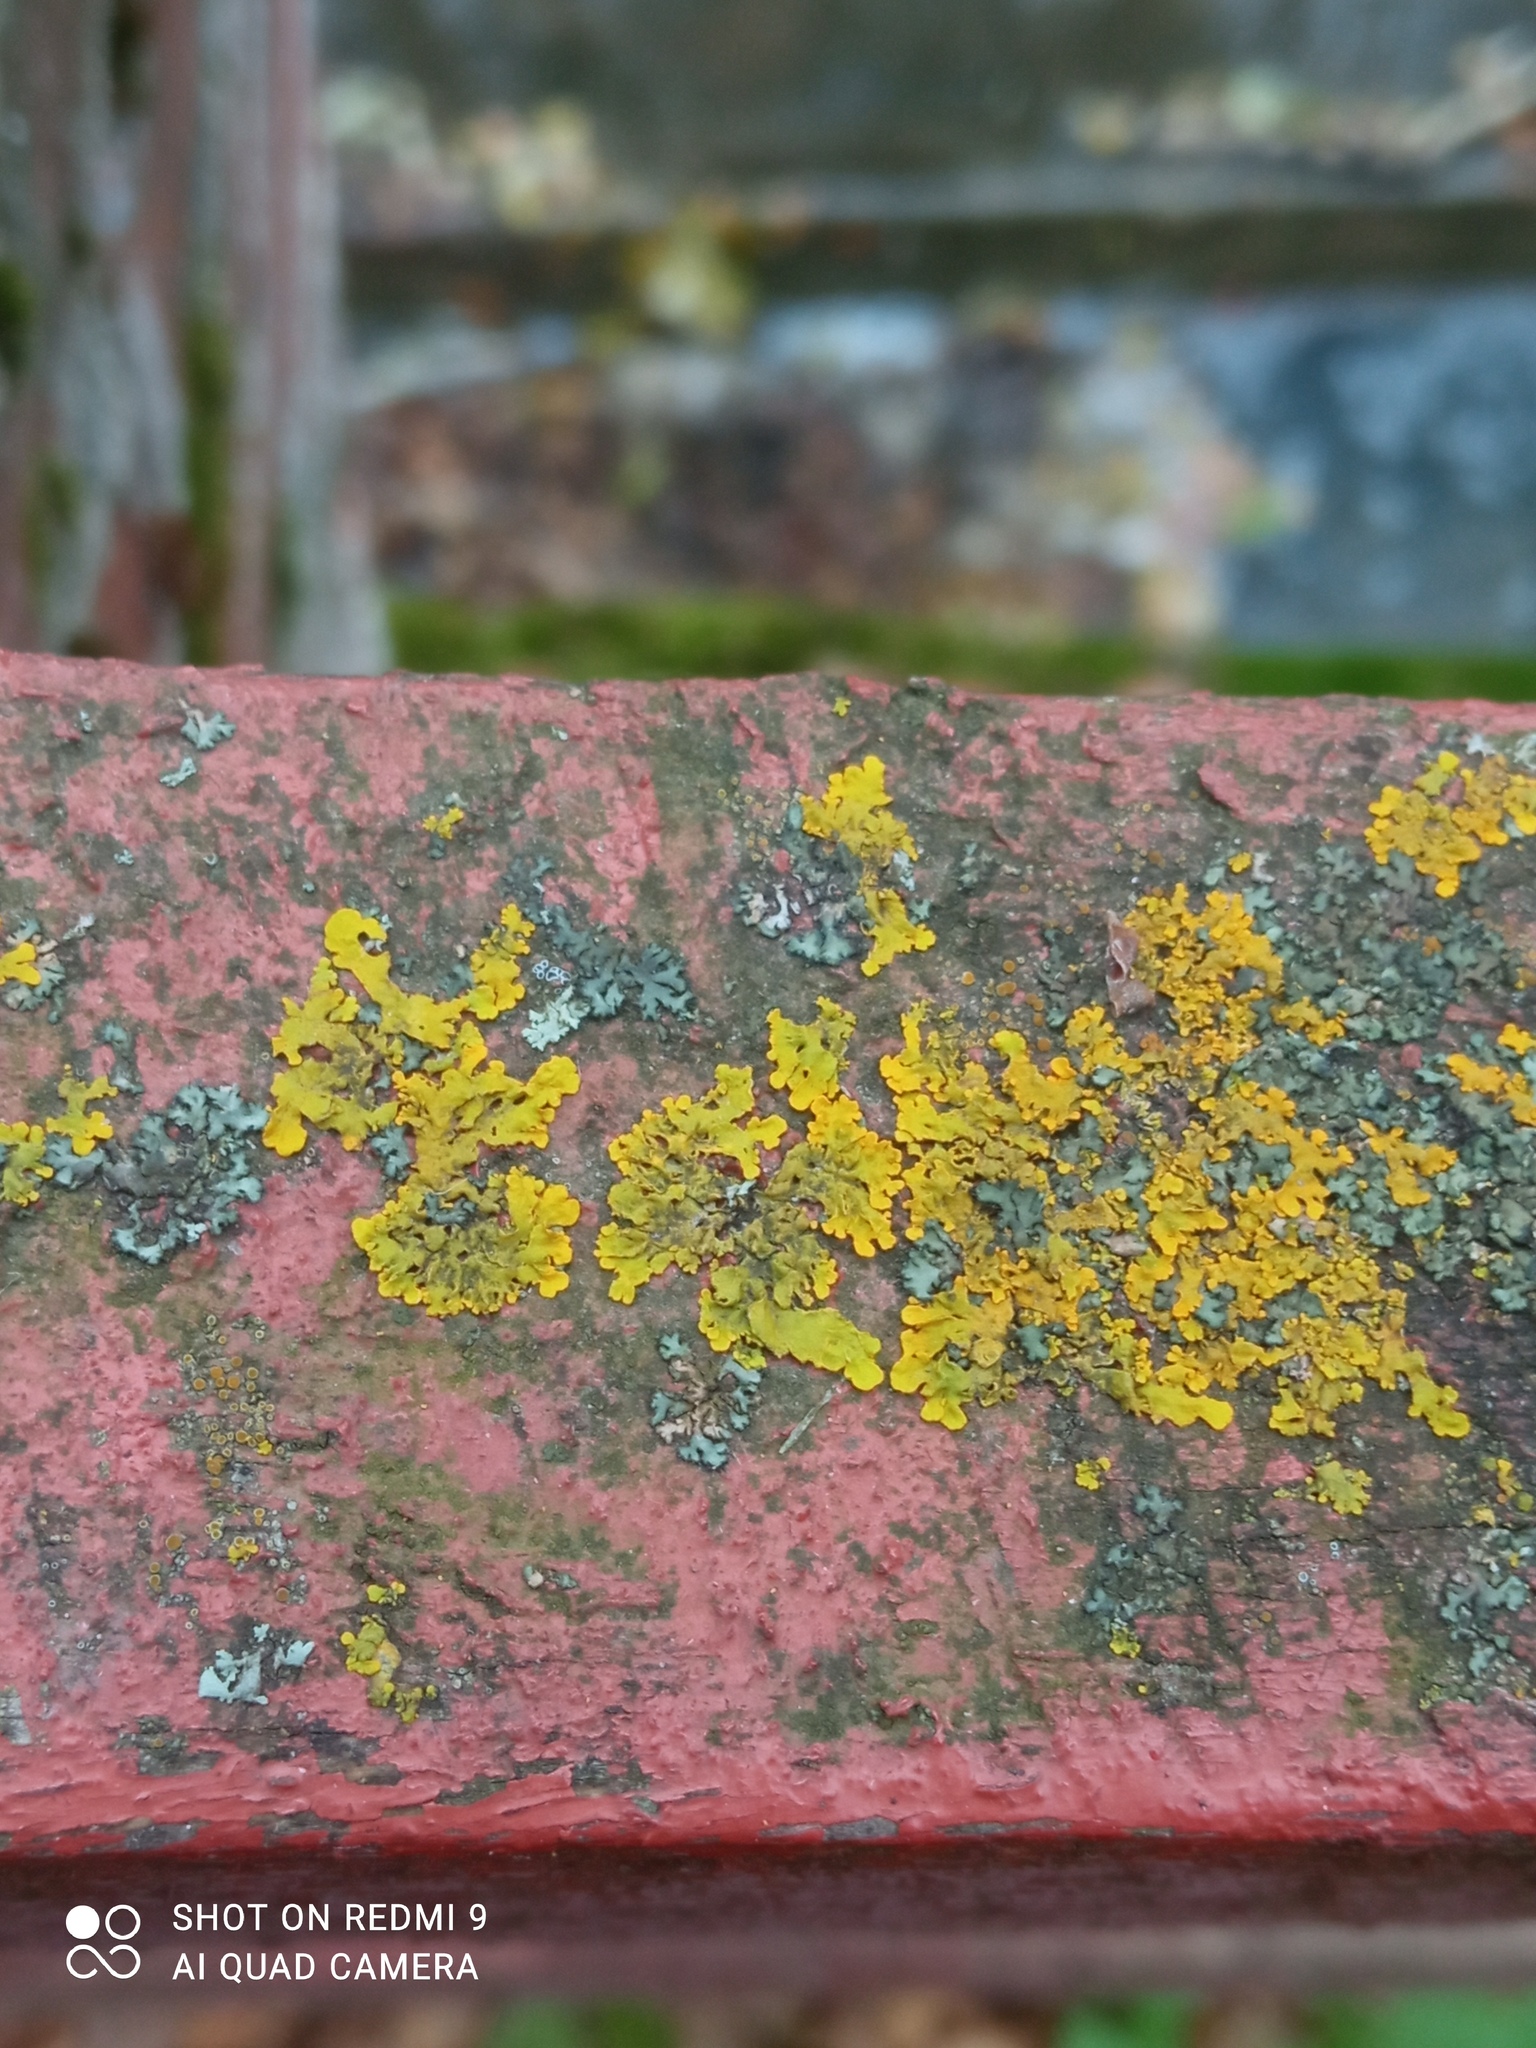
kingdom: Fungi
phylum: Ascomycota
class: Lecanoromycetes
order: Teloschistales
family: Teloschistaceae
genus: Xanthoria
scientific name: Xanthoria parietina
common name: Common orange lichen
